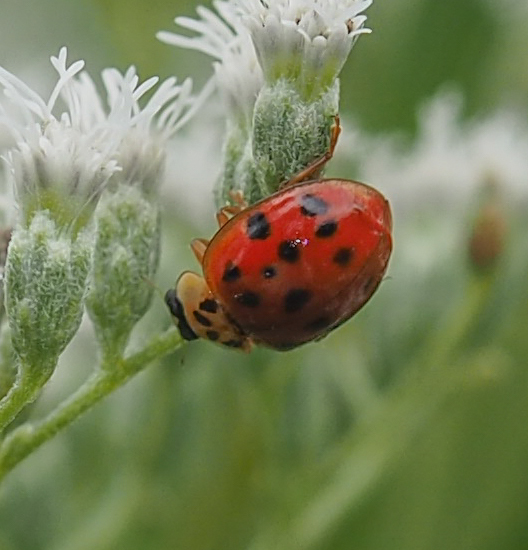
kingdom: Animalia
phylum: Arthropoda
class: Insecta
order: Coleoptera
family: Coccinellidae
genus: Harmonia
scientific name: Harmonia axyridis
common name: Harlequin ladybird
